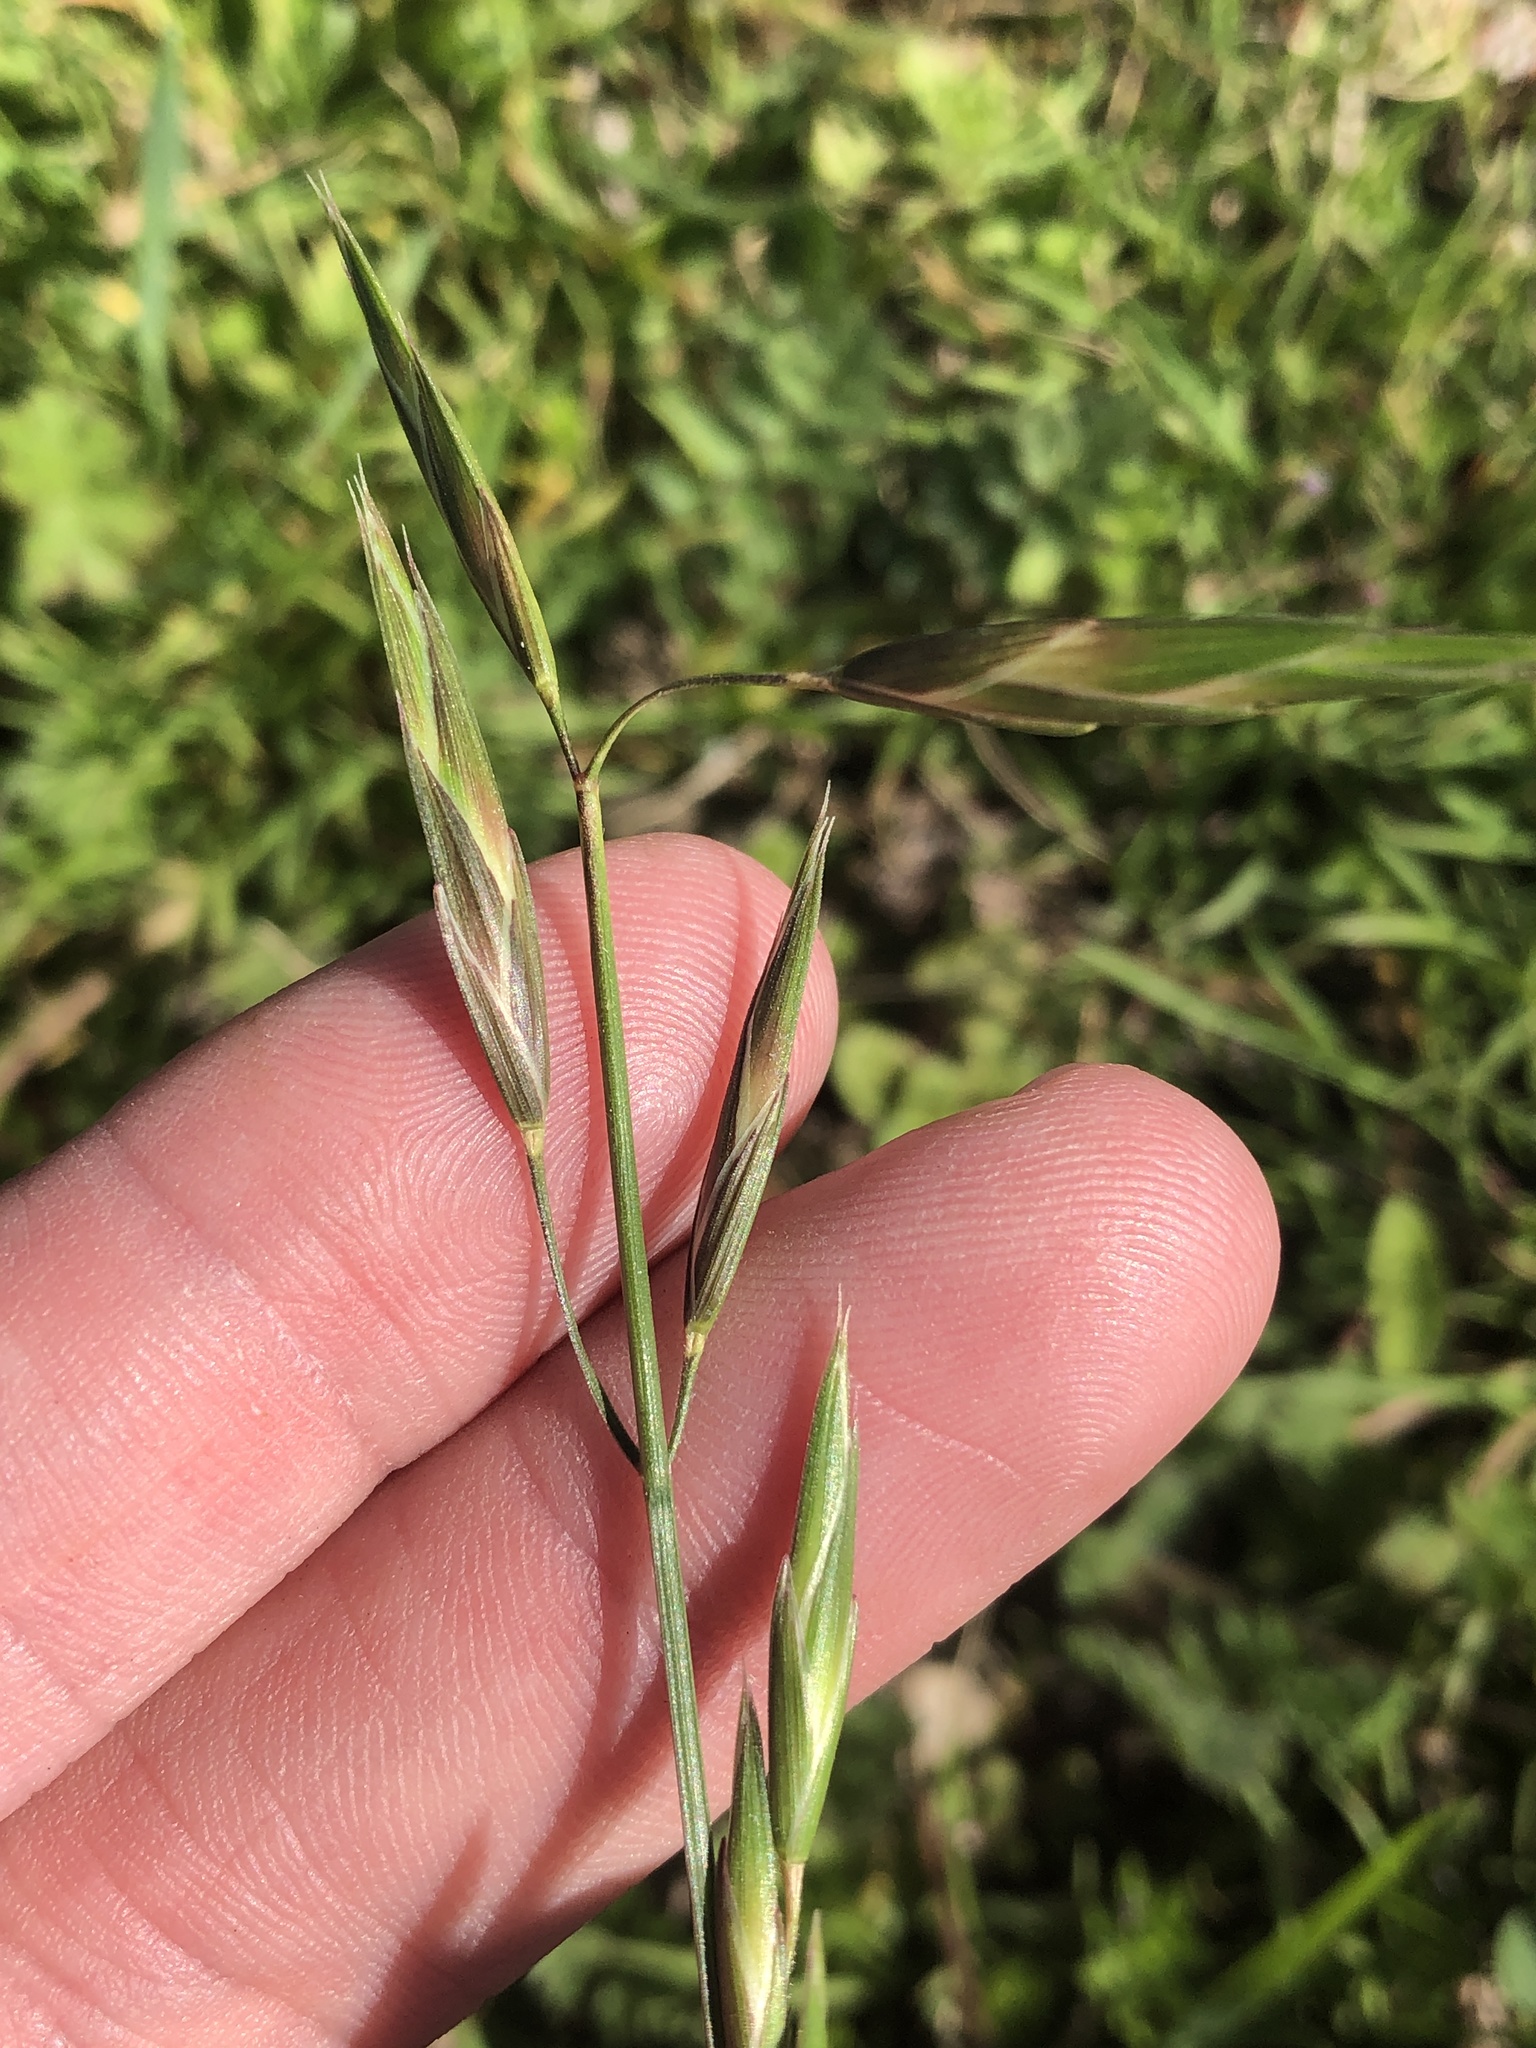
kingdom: Plantae
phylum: Tracheophyta
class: Liliopsida
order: Poales
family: Poaceae
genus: Bromus
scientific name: Bromus catharticus
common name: Rescuegrass
